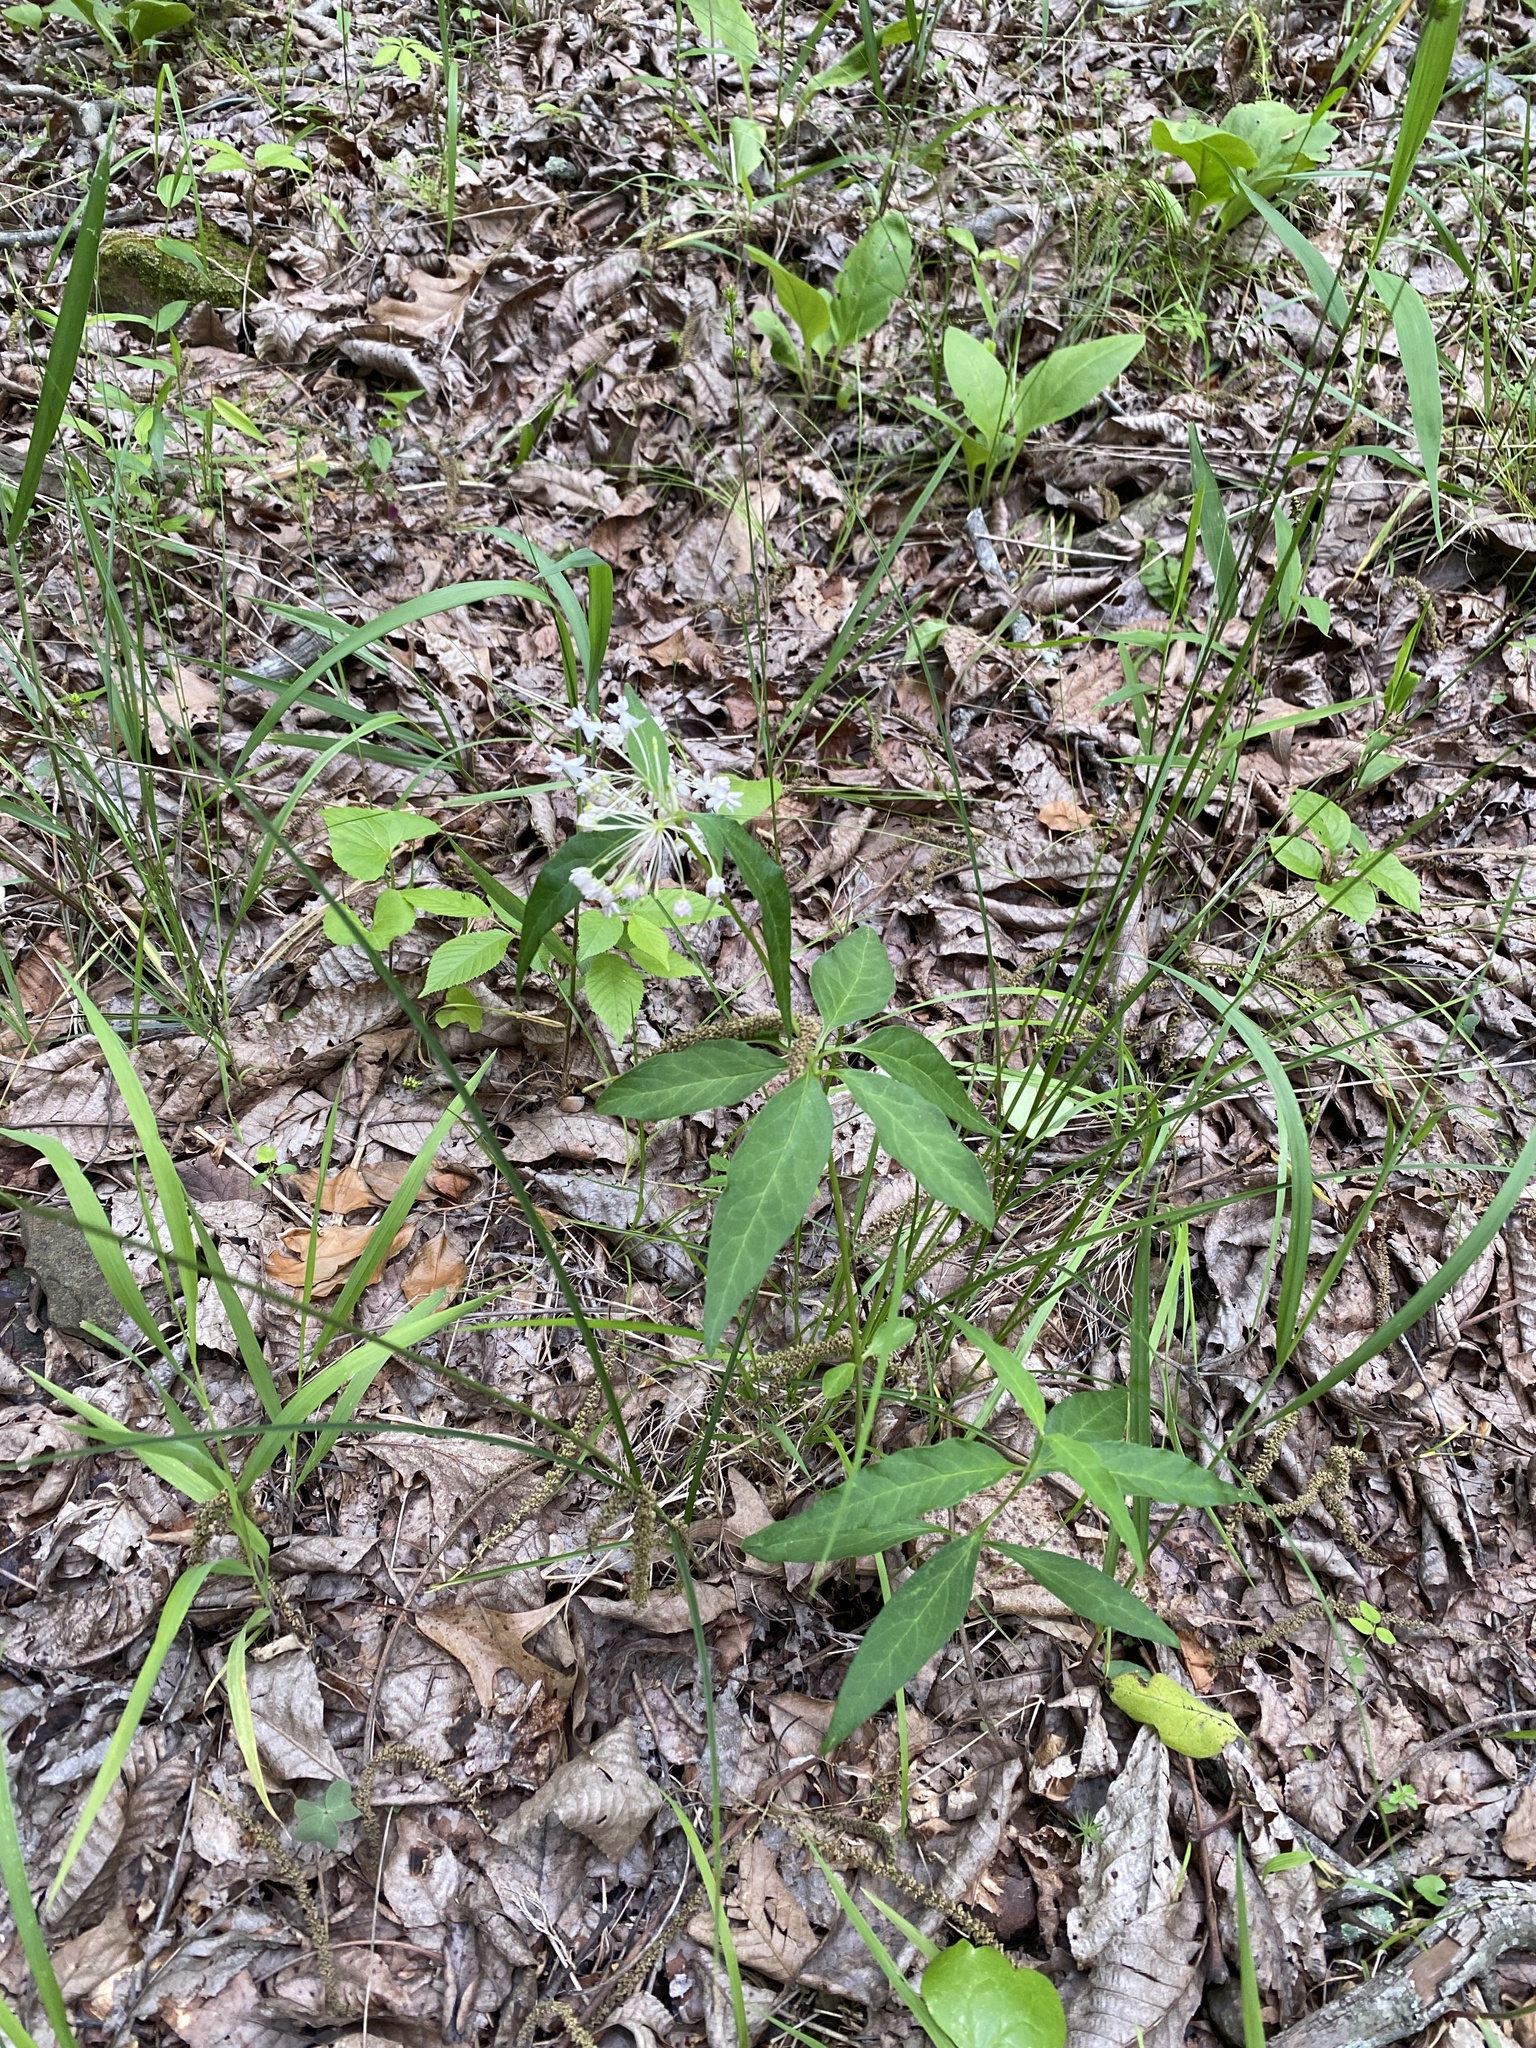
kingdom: Plantae
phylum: Tracheophyta
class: Magnoliopsida
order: Gentianales
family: Apocynaceae
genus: Asclepias
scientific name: Asclepias quadrifolia
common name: Whorled milkweed
